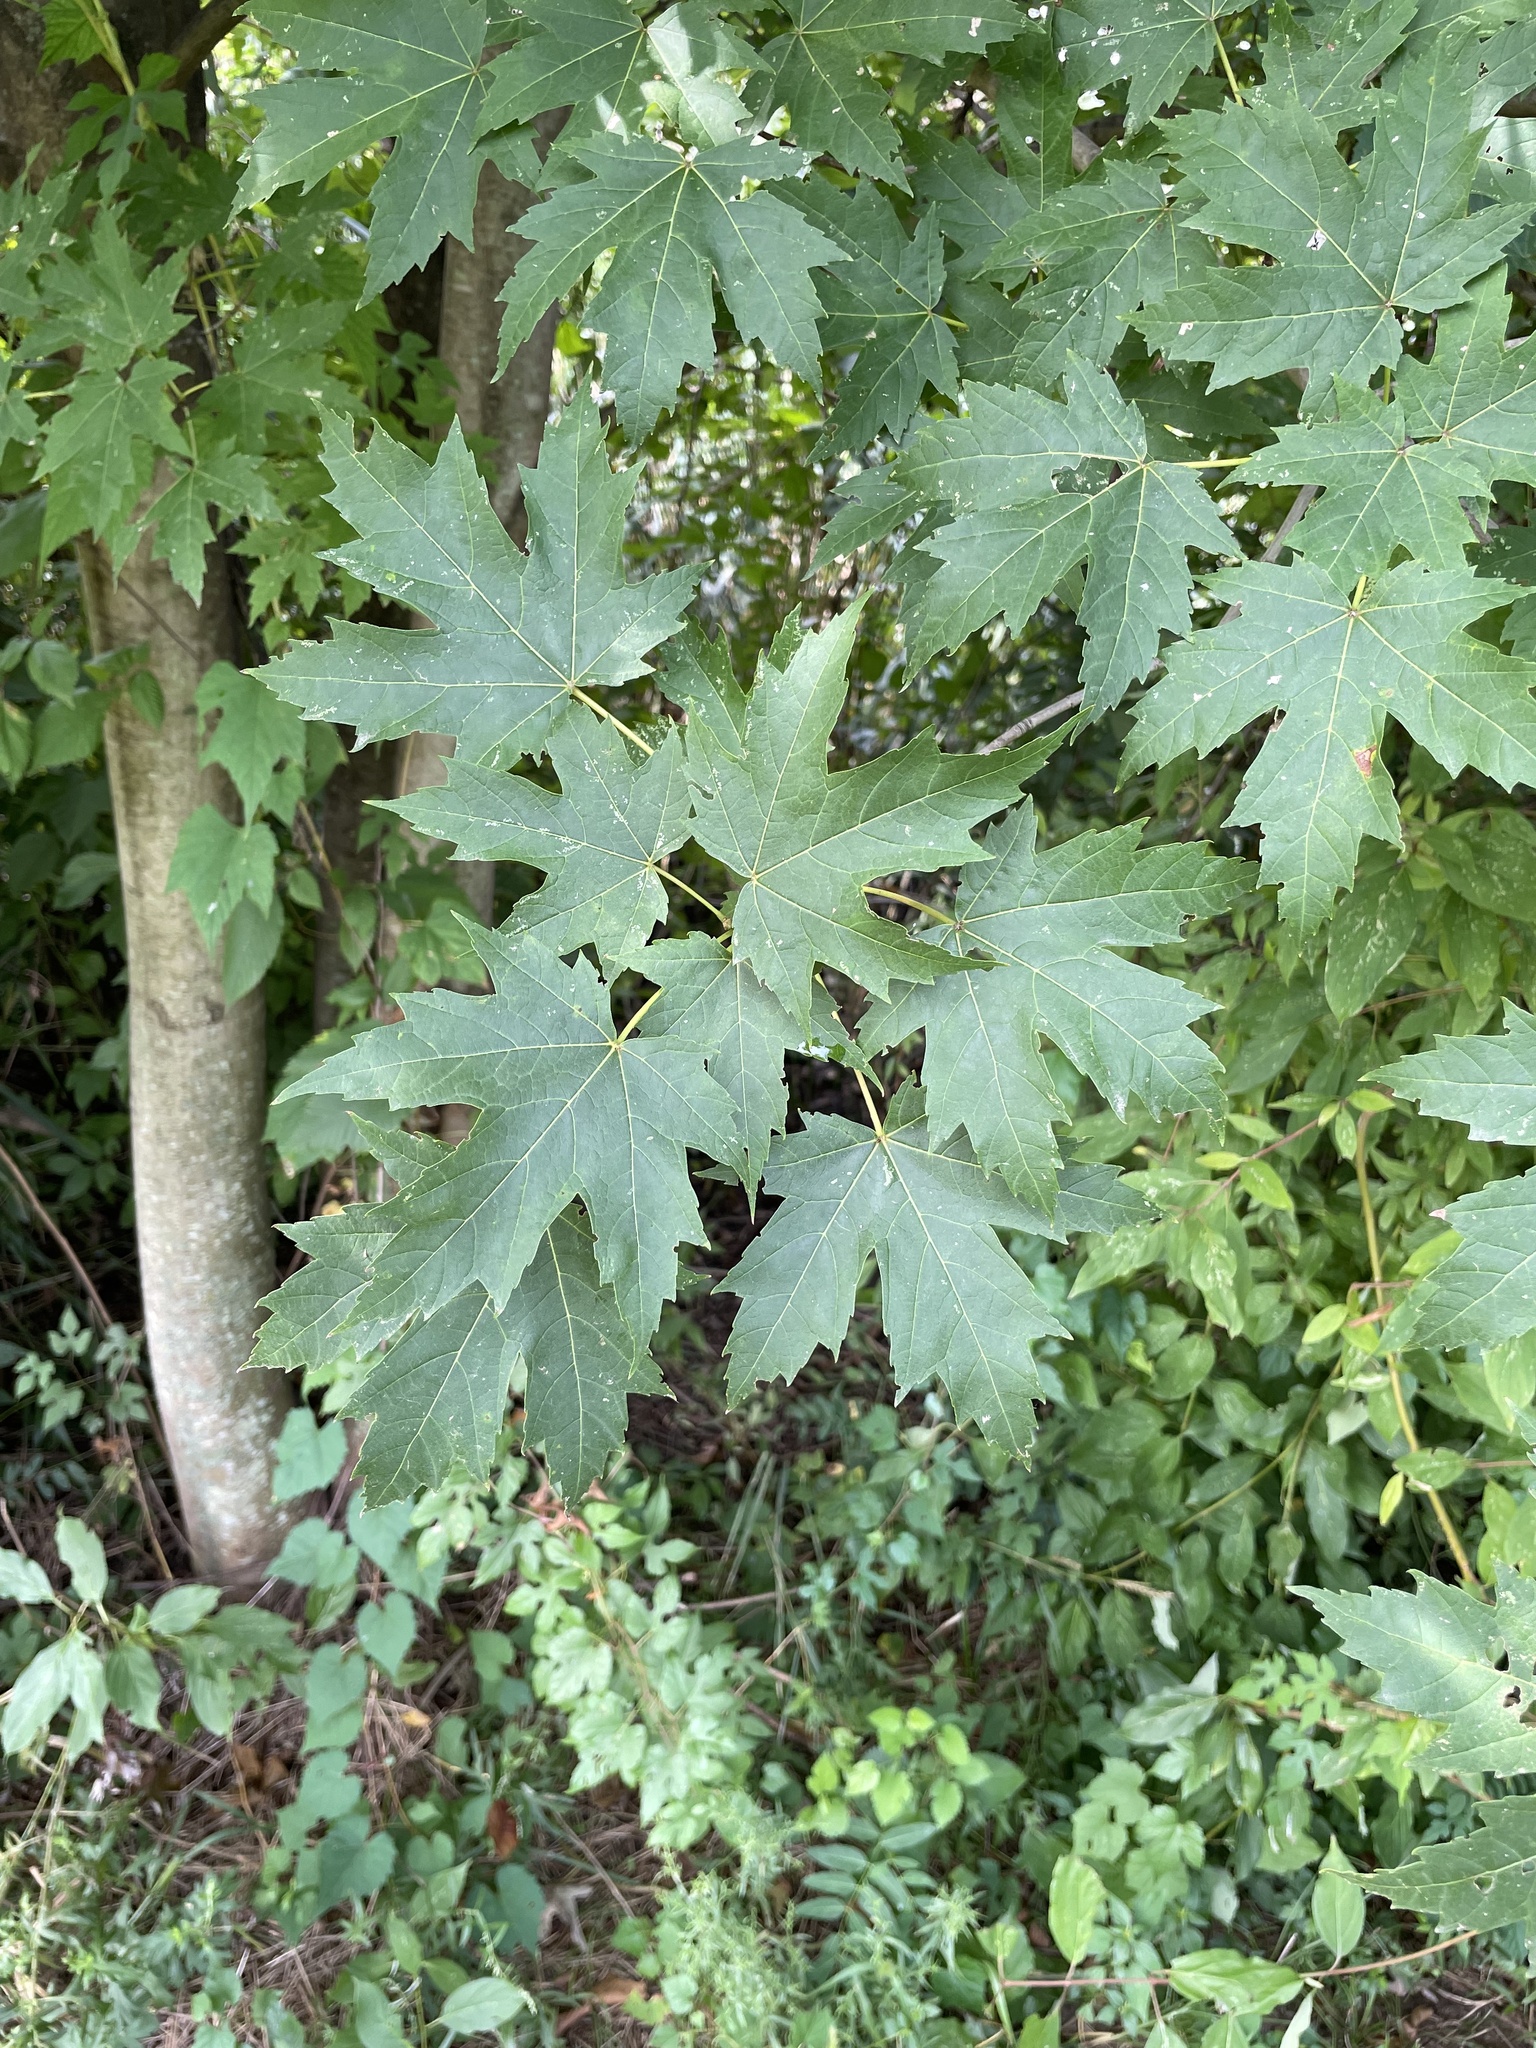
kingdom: Plantae
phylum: Tracheophyta
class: Magnoliopsida
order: Sapindales
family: Sapindaceae
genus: Acer
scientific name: Acer saccharinum
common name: Silver maple
